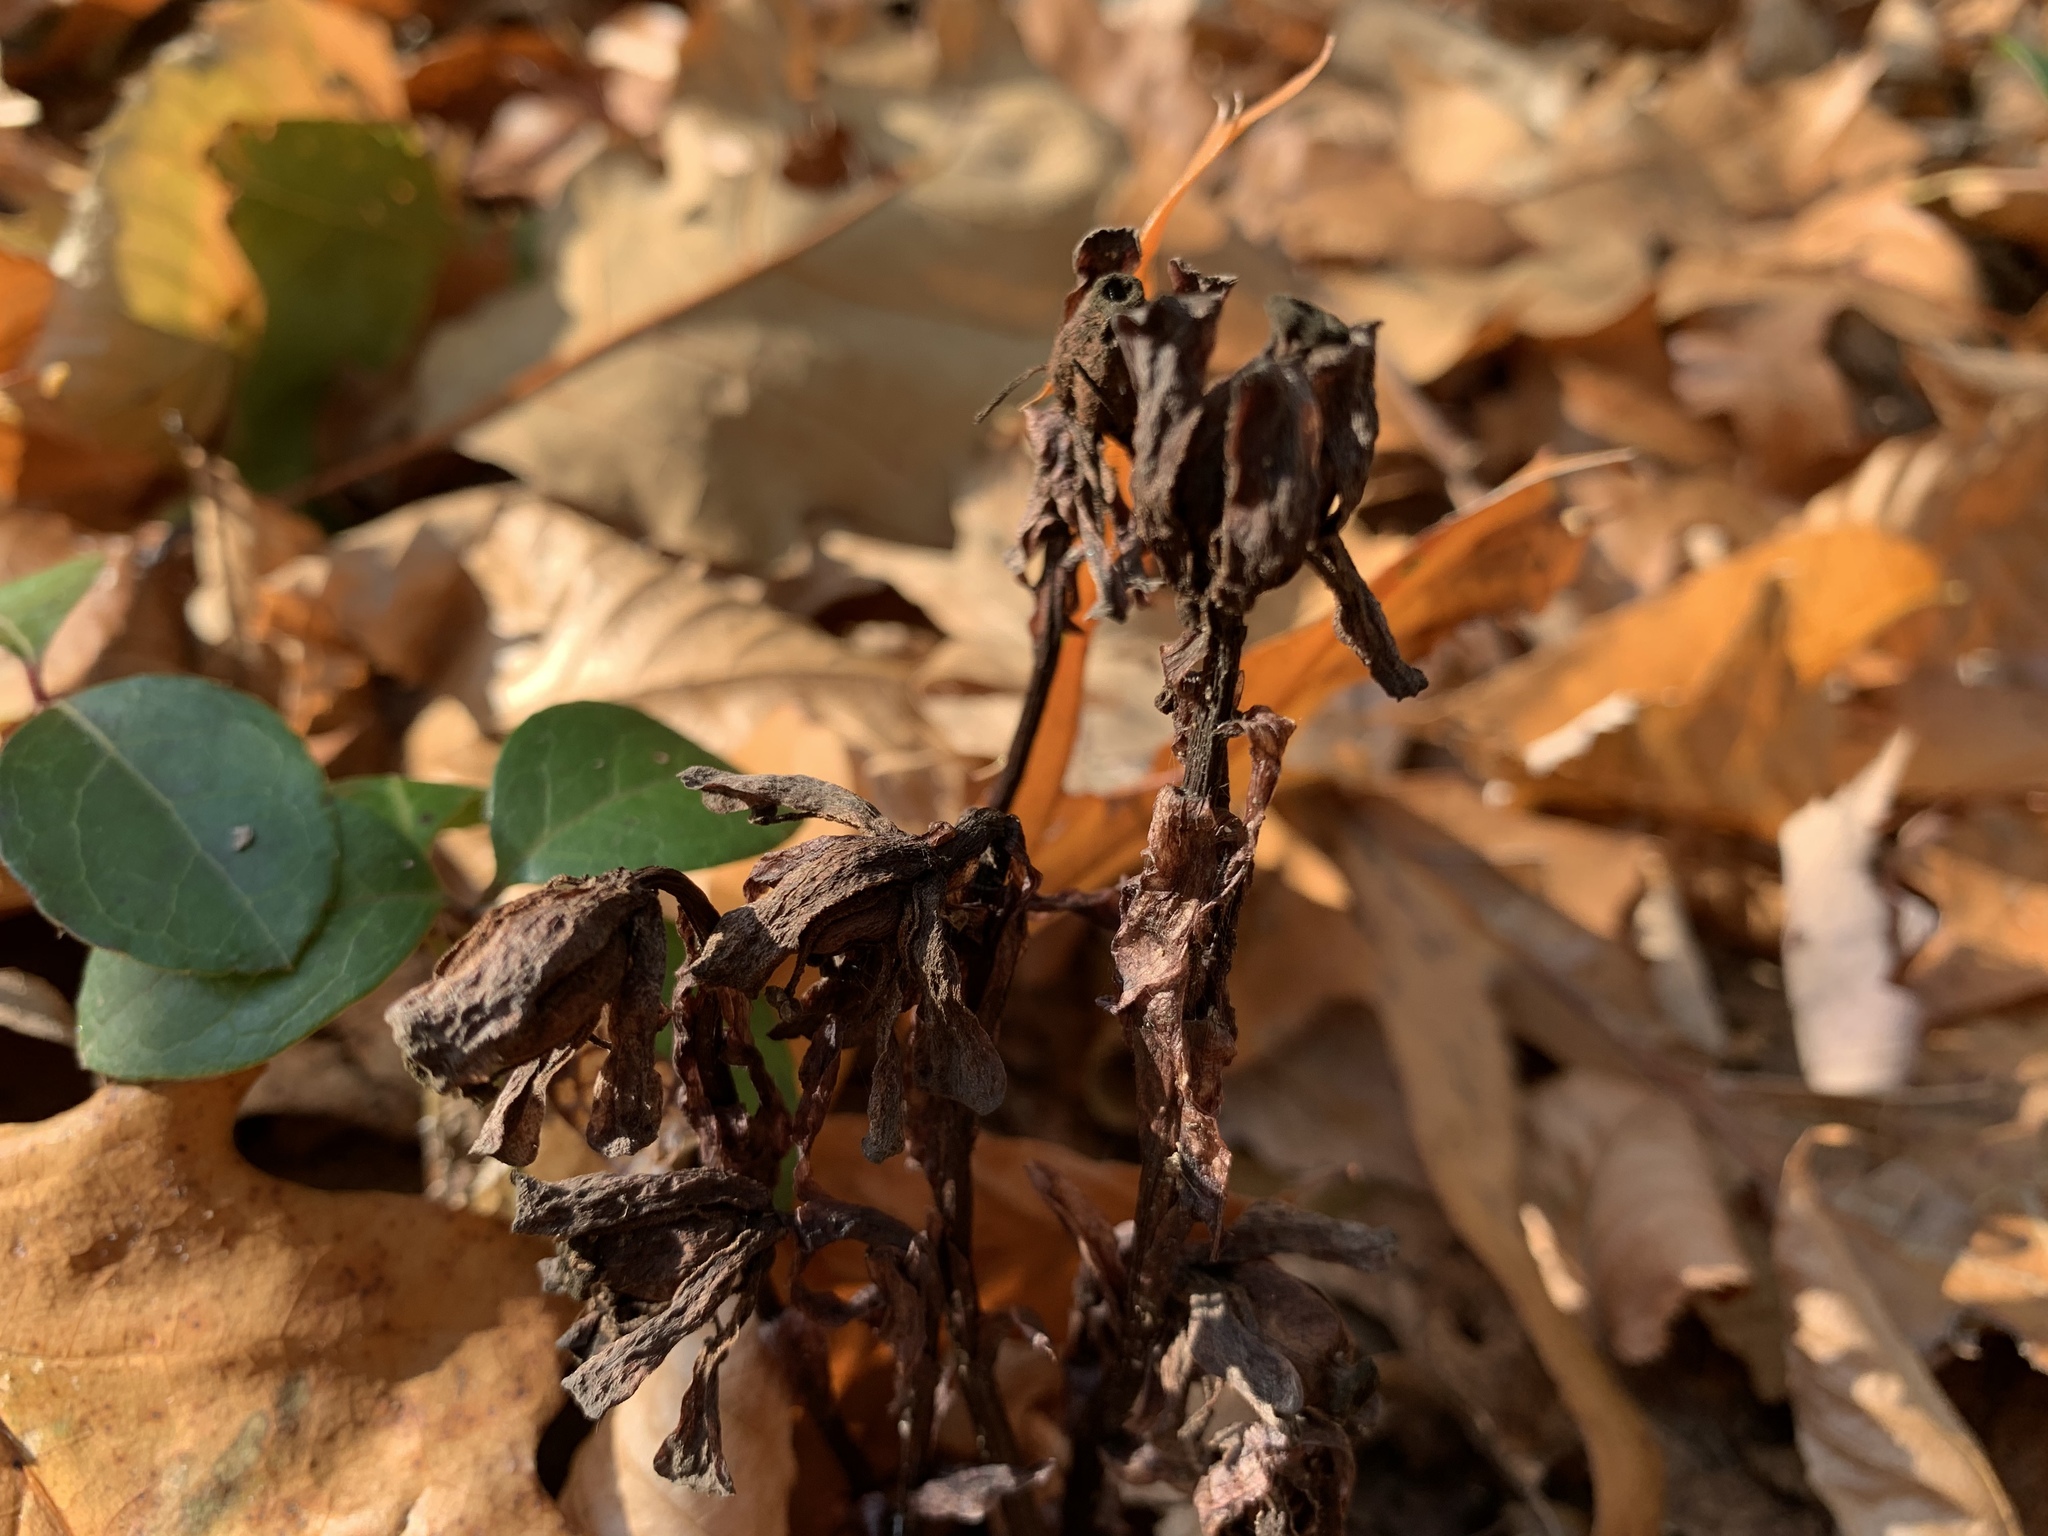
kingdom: Plantae
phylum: Tracheophyta
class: Magnoliopsida
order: Ericales
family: Ericaceae
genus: Monotropa
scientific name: Monotropa uniflora
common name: Convulsion root
